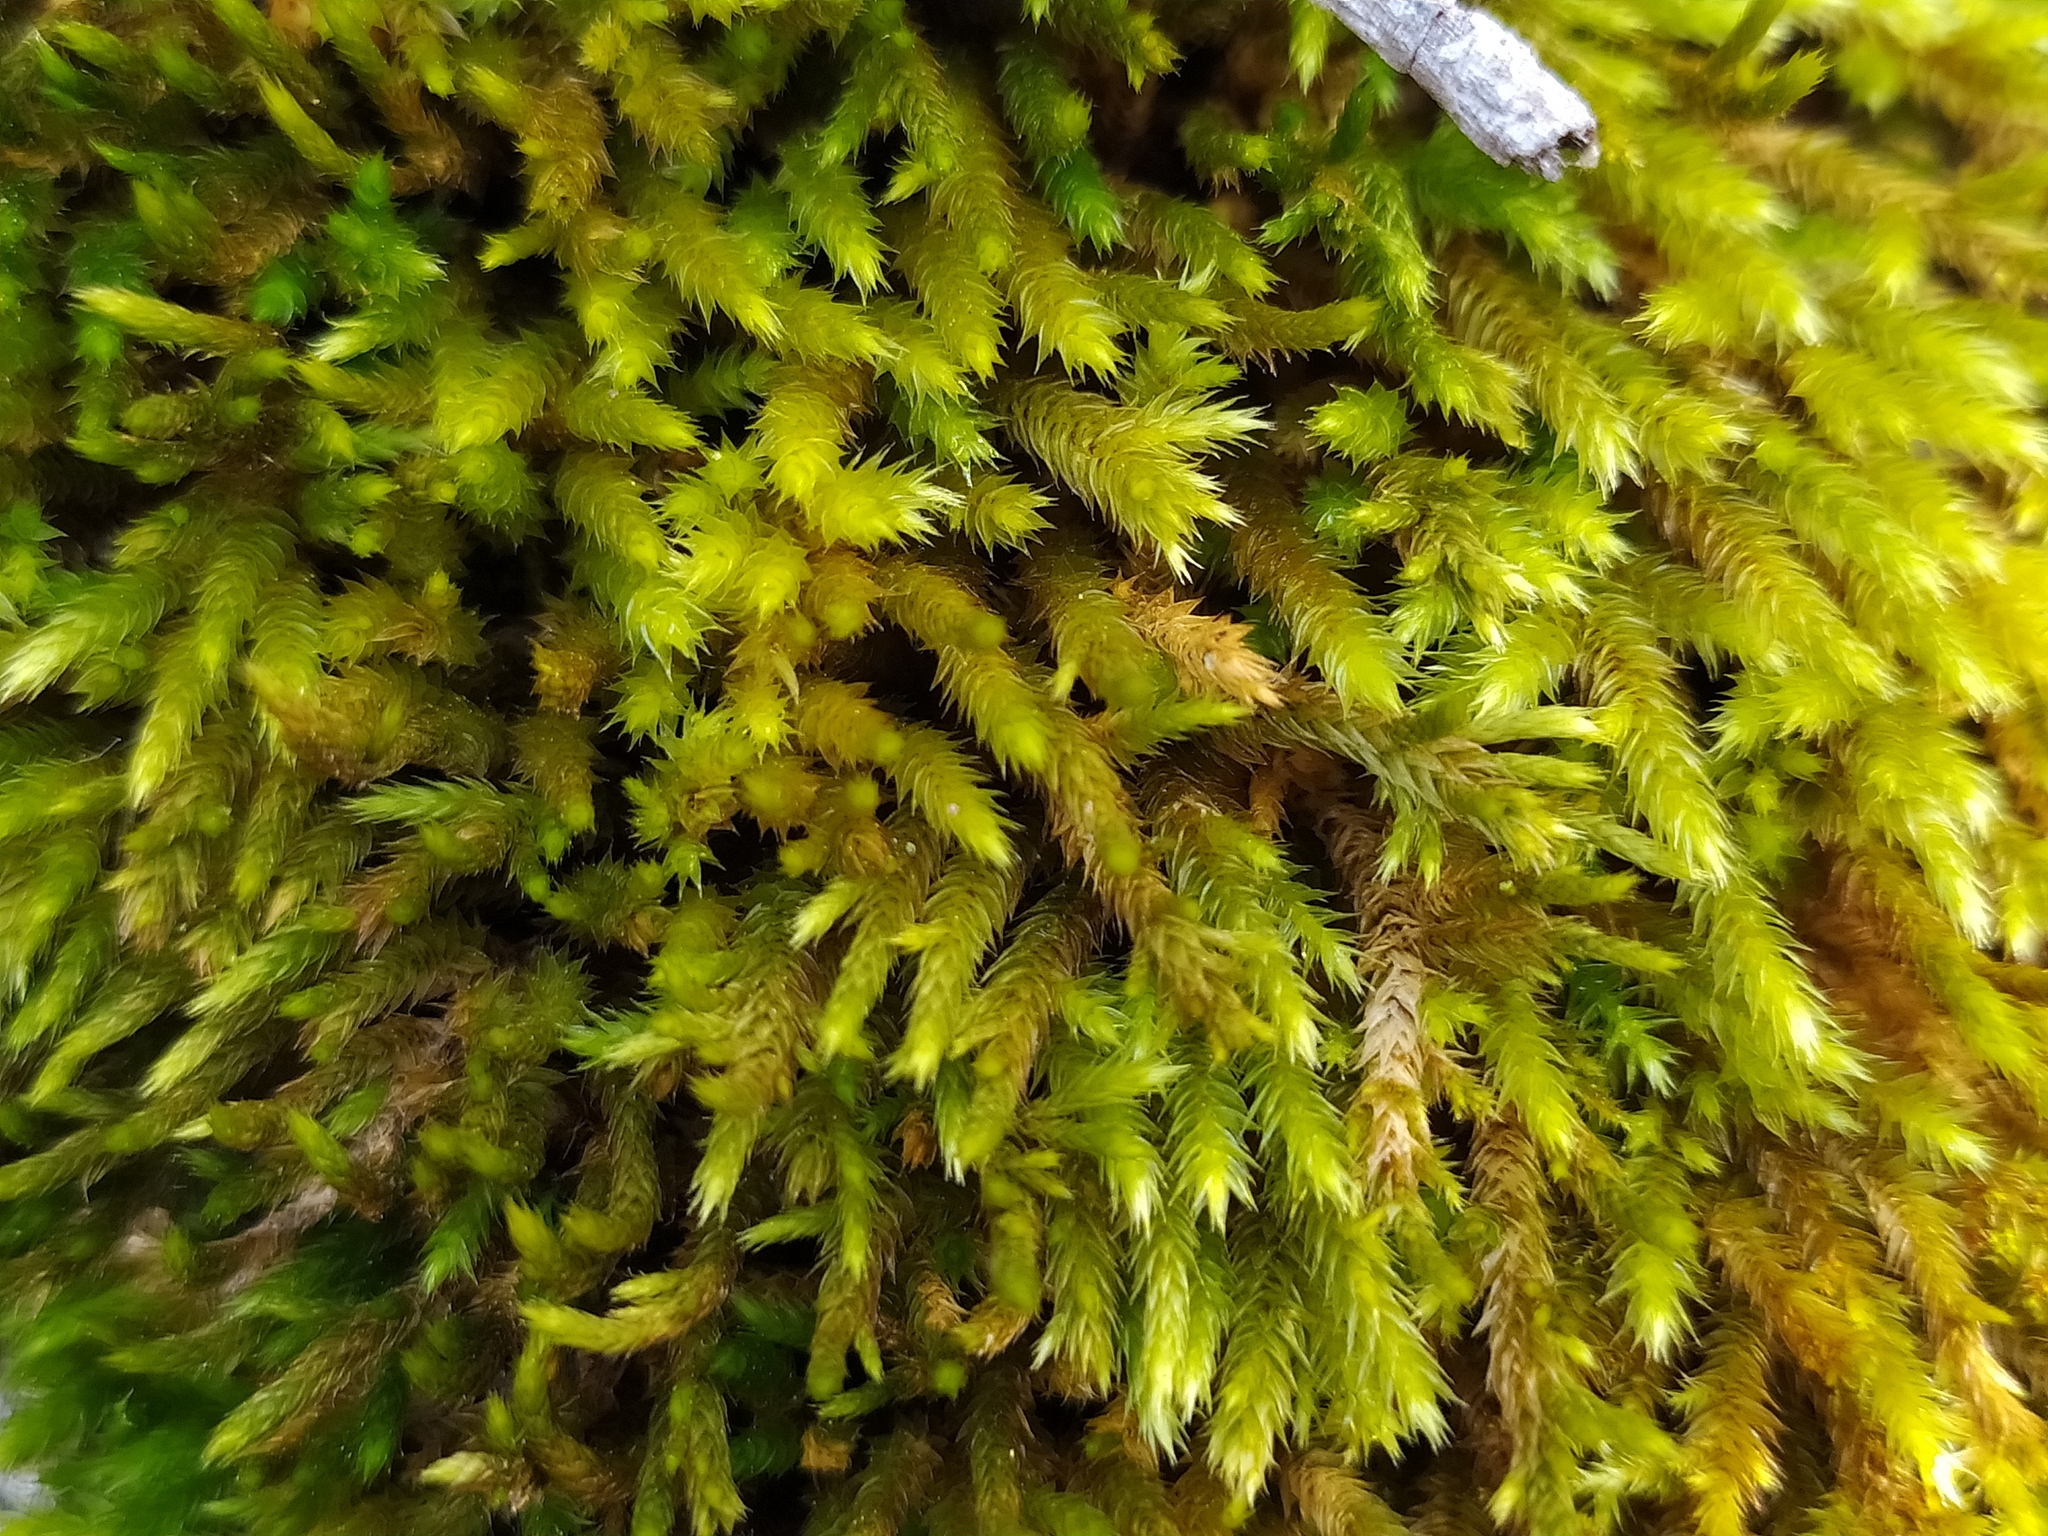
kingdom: Plantae
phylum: Bryophyta
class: Bryopsida
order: Hypnales
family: Leucodontaceae
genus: Leucodon
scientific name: Leucodon sciuroides
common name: Squirrel-tail moss
